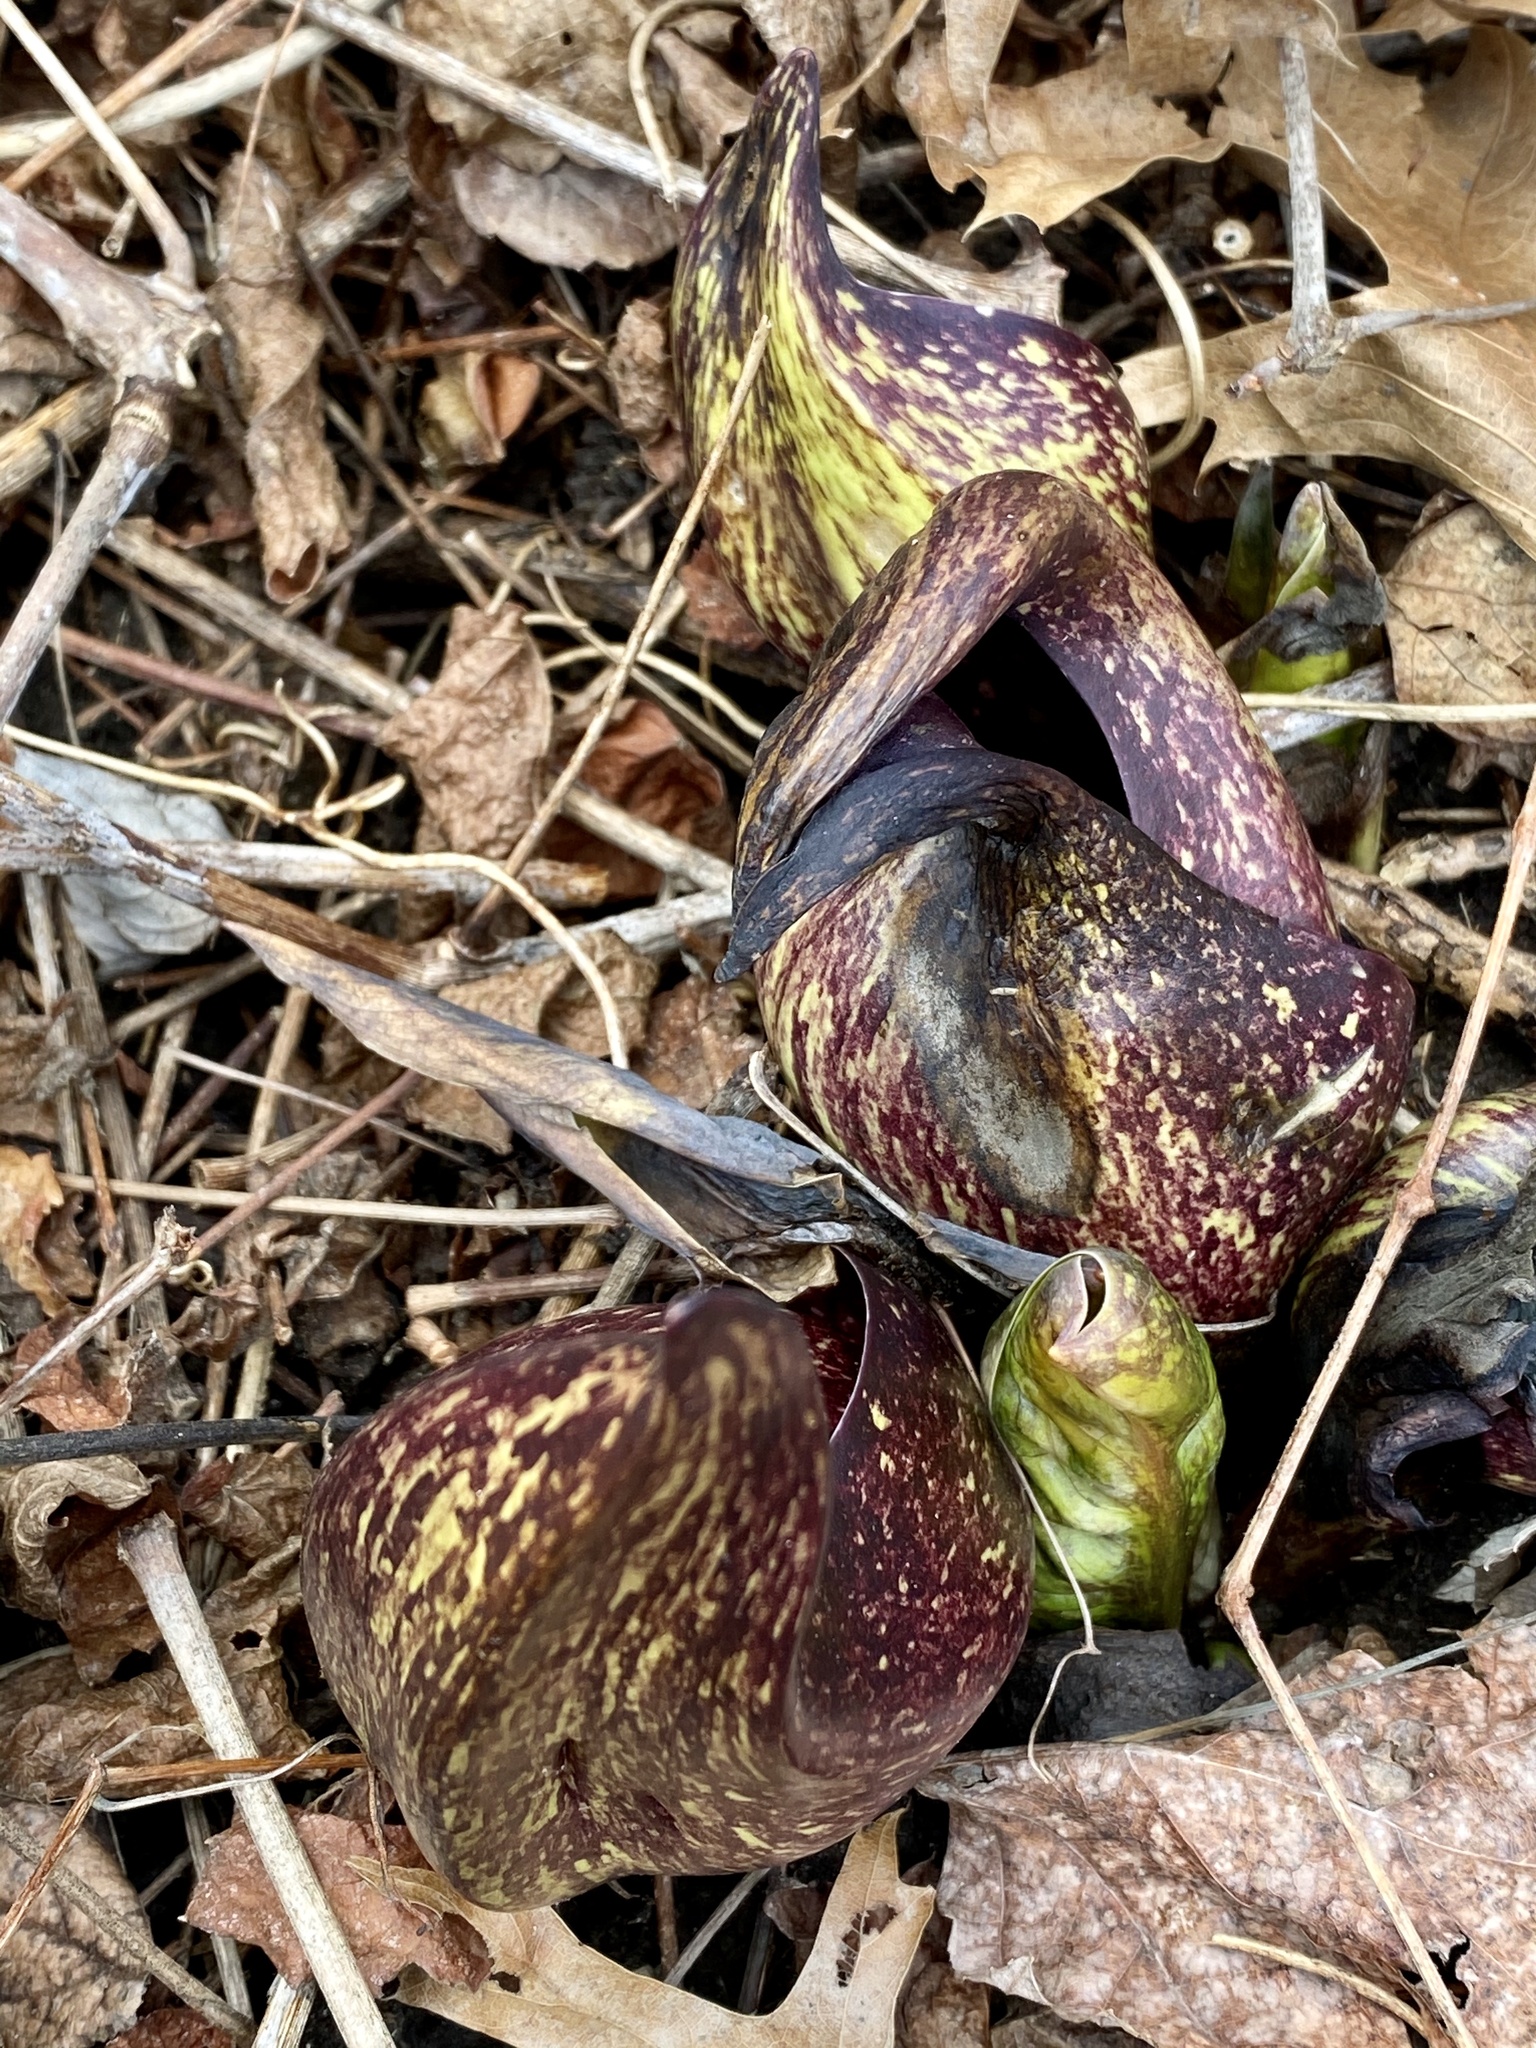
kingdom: Plantae
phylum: Tracheophyta
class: Liliopsida
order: Alismatales
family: Araceae
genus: Symplocarpus
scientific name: Symplocarpus foetidus
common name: Eastern skunk cabbage
